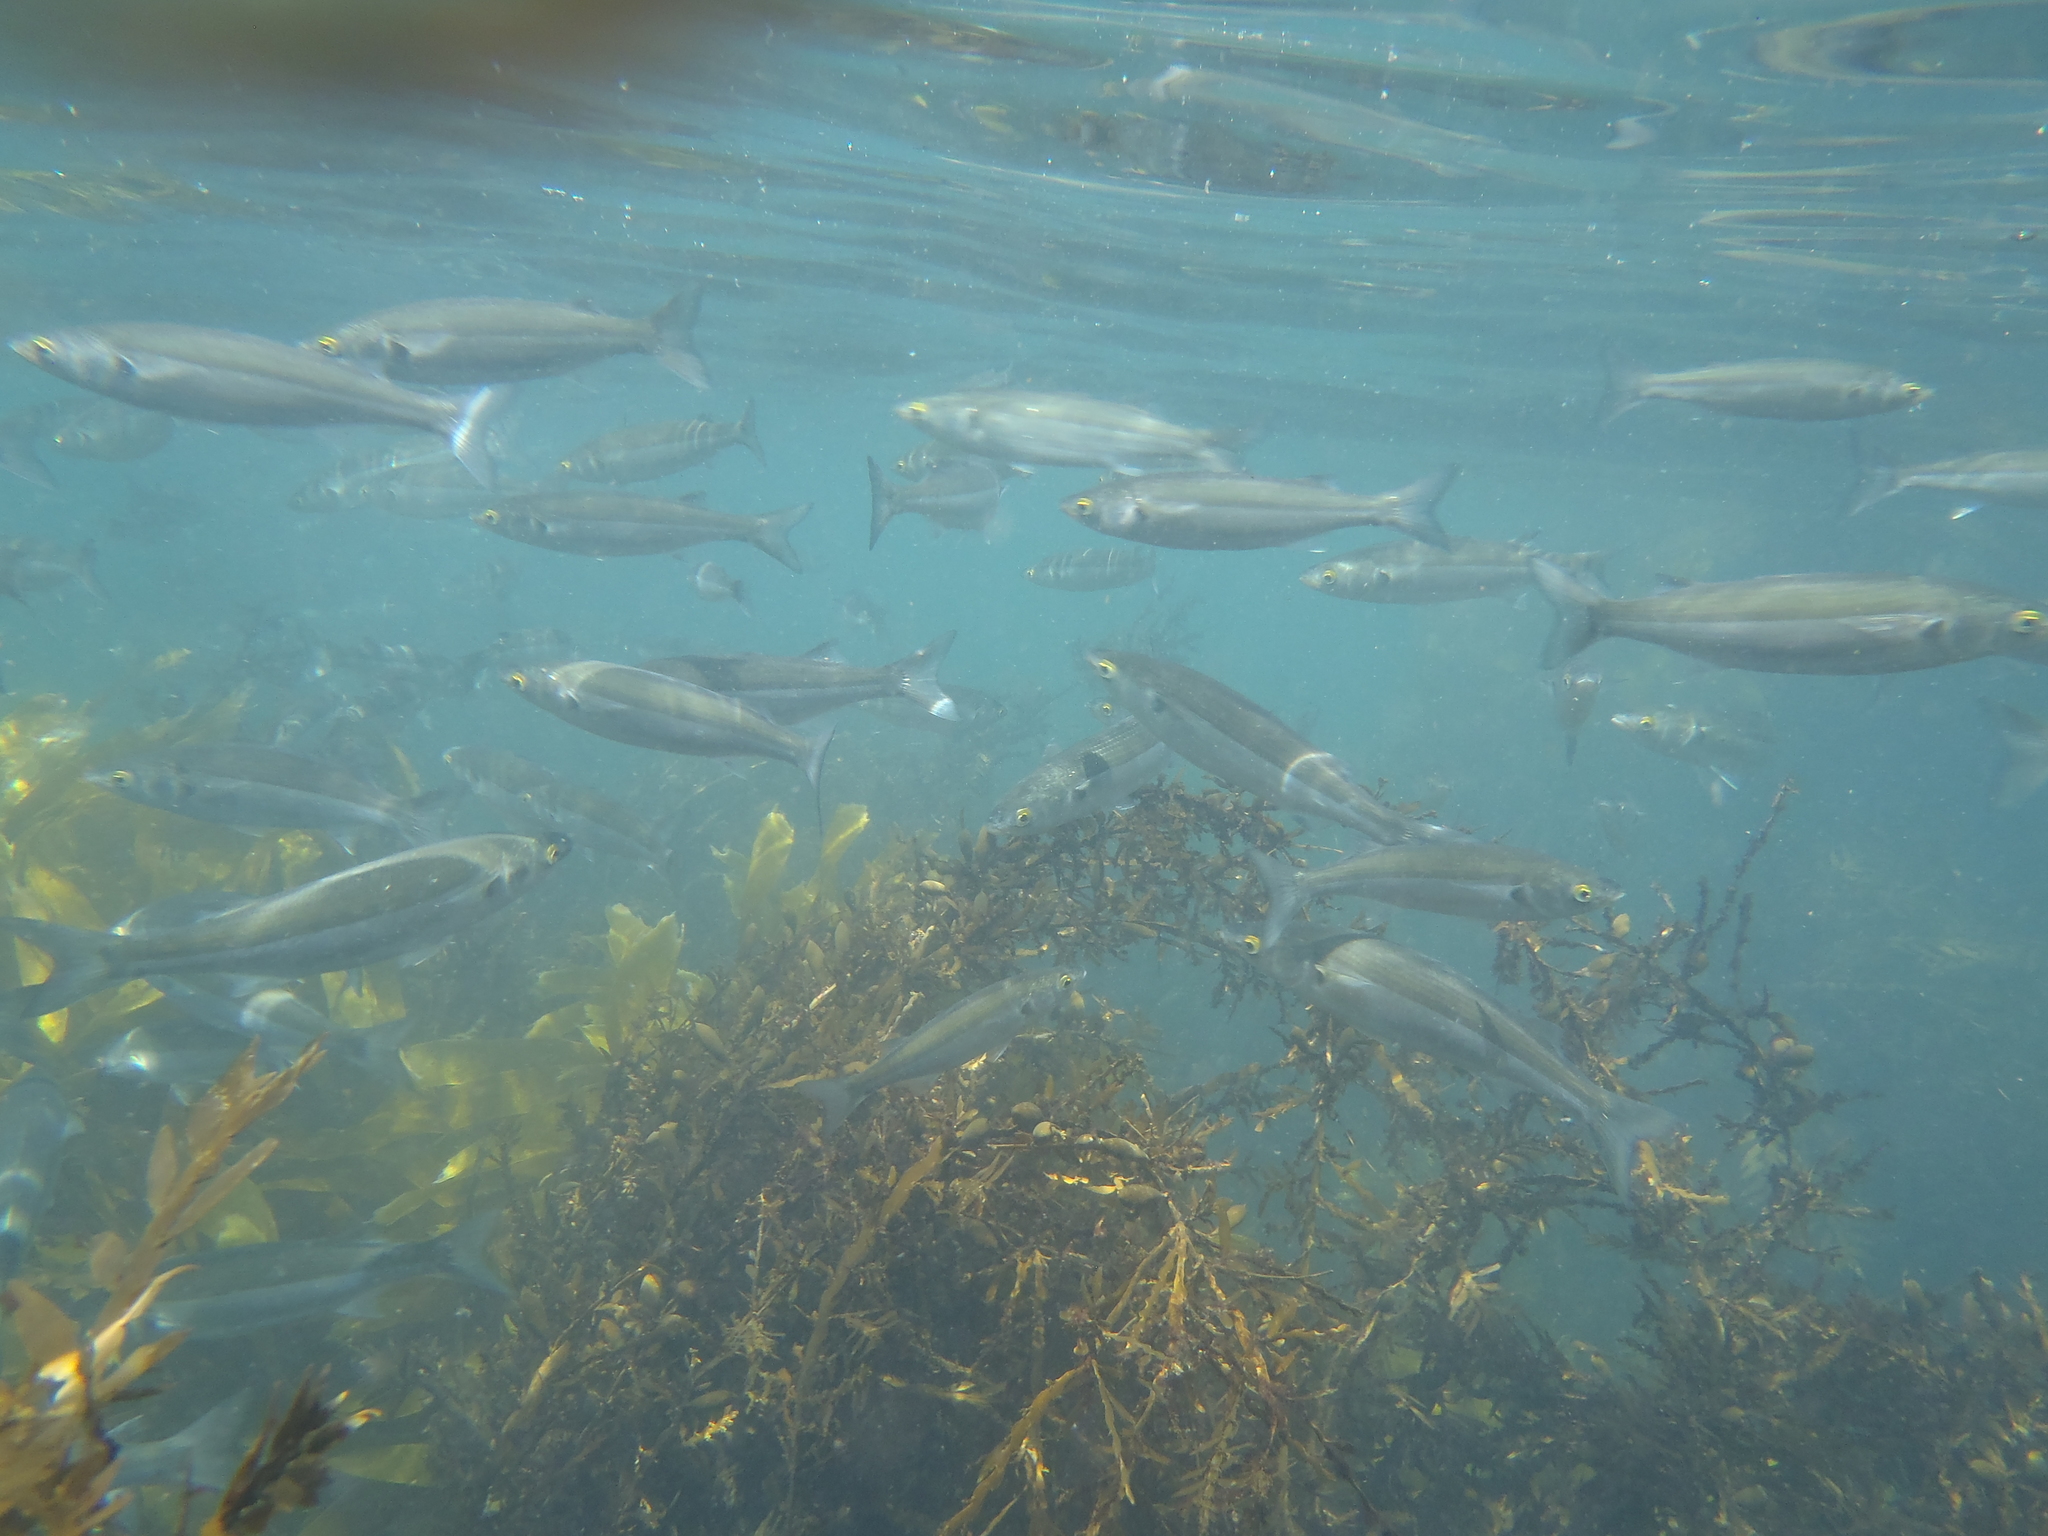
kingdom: Animalia
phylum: Chordata
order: Mugiliformes
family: Mugilidae
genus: Aldrichetta
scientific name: Aldrichetta forsteri
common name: Yellow-eye mullet
